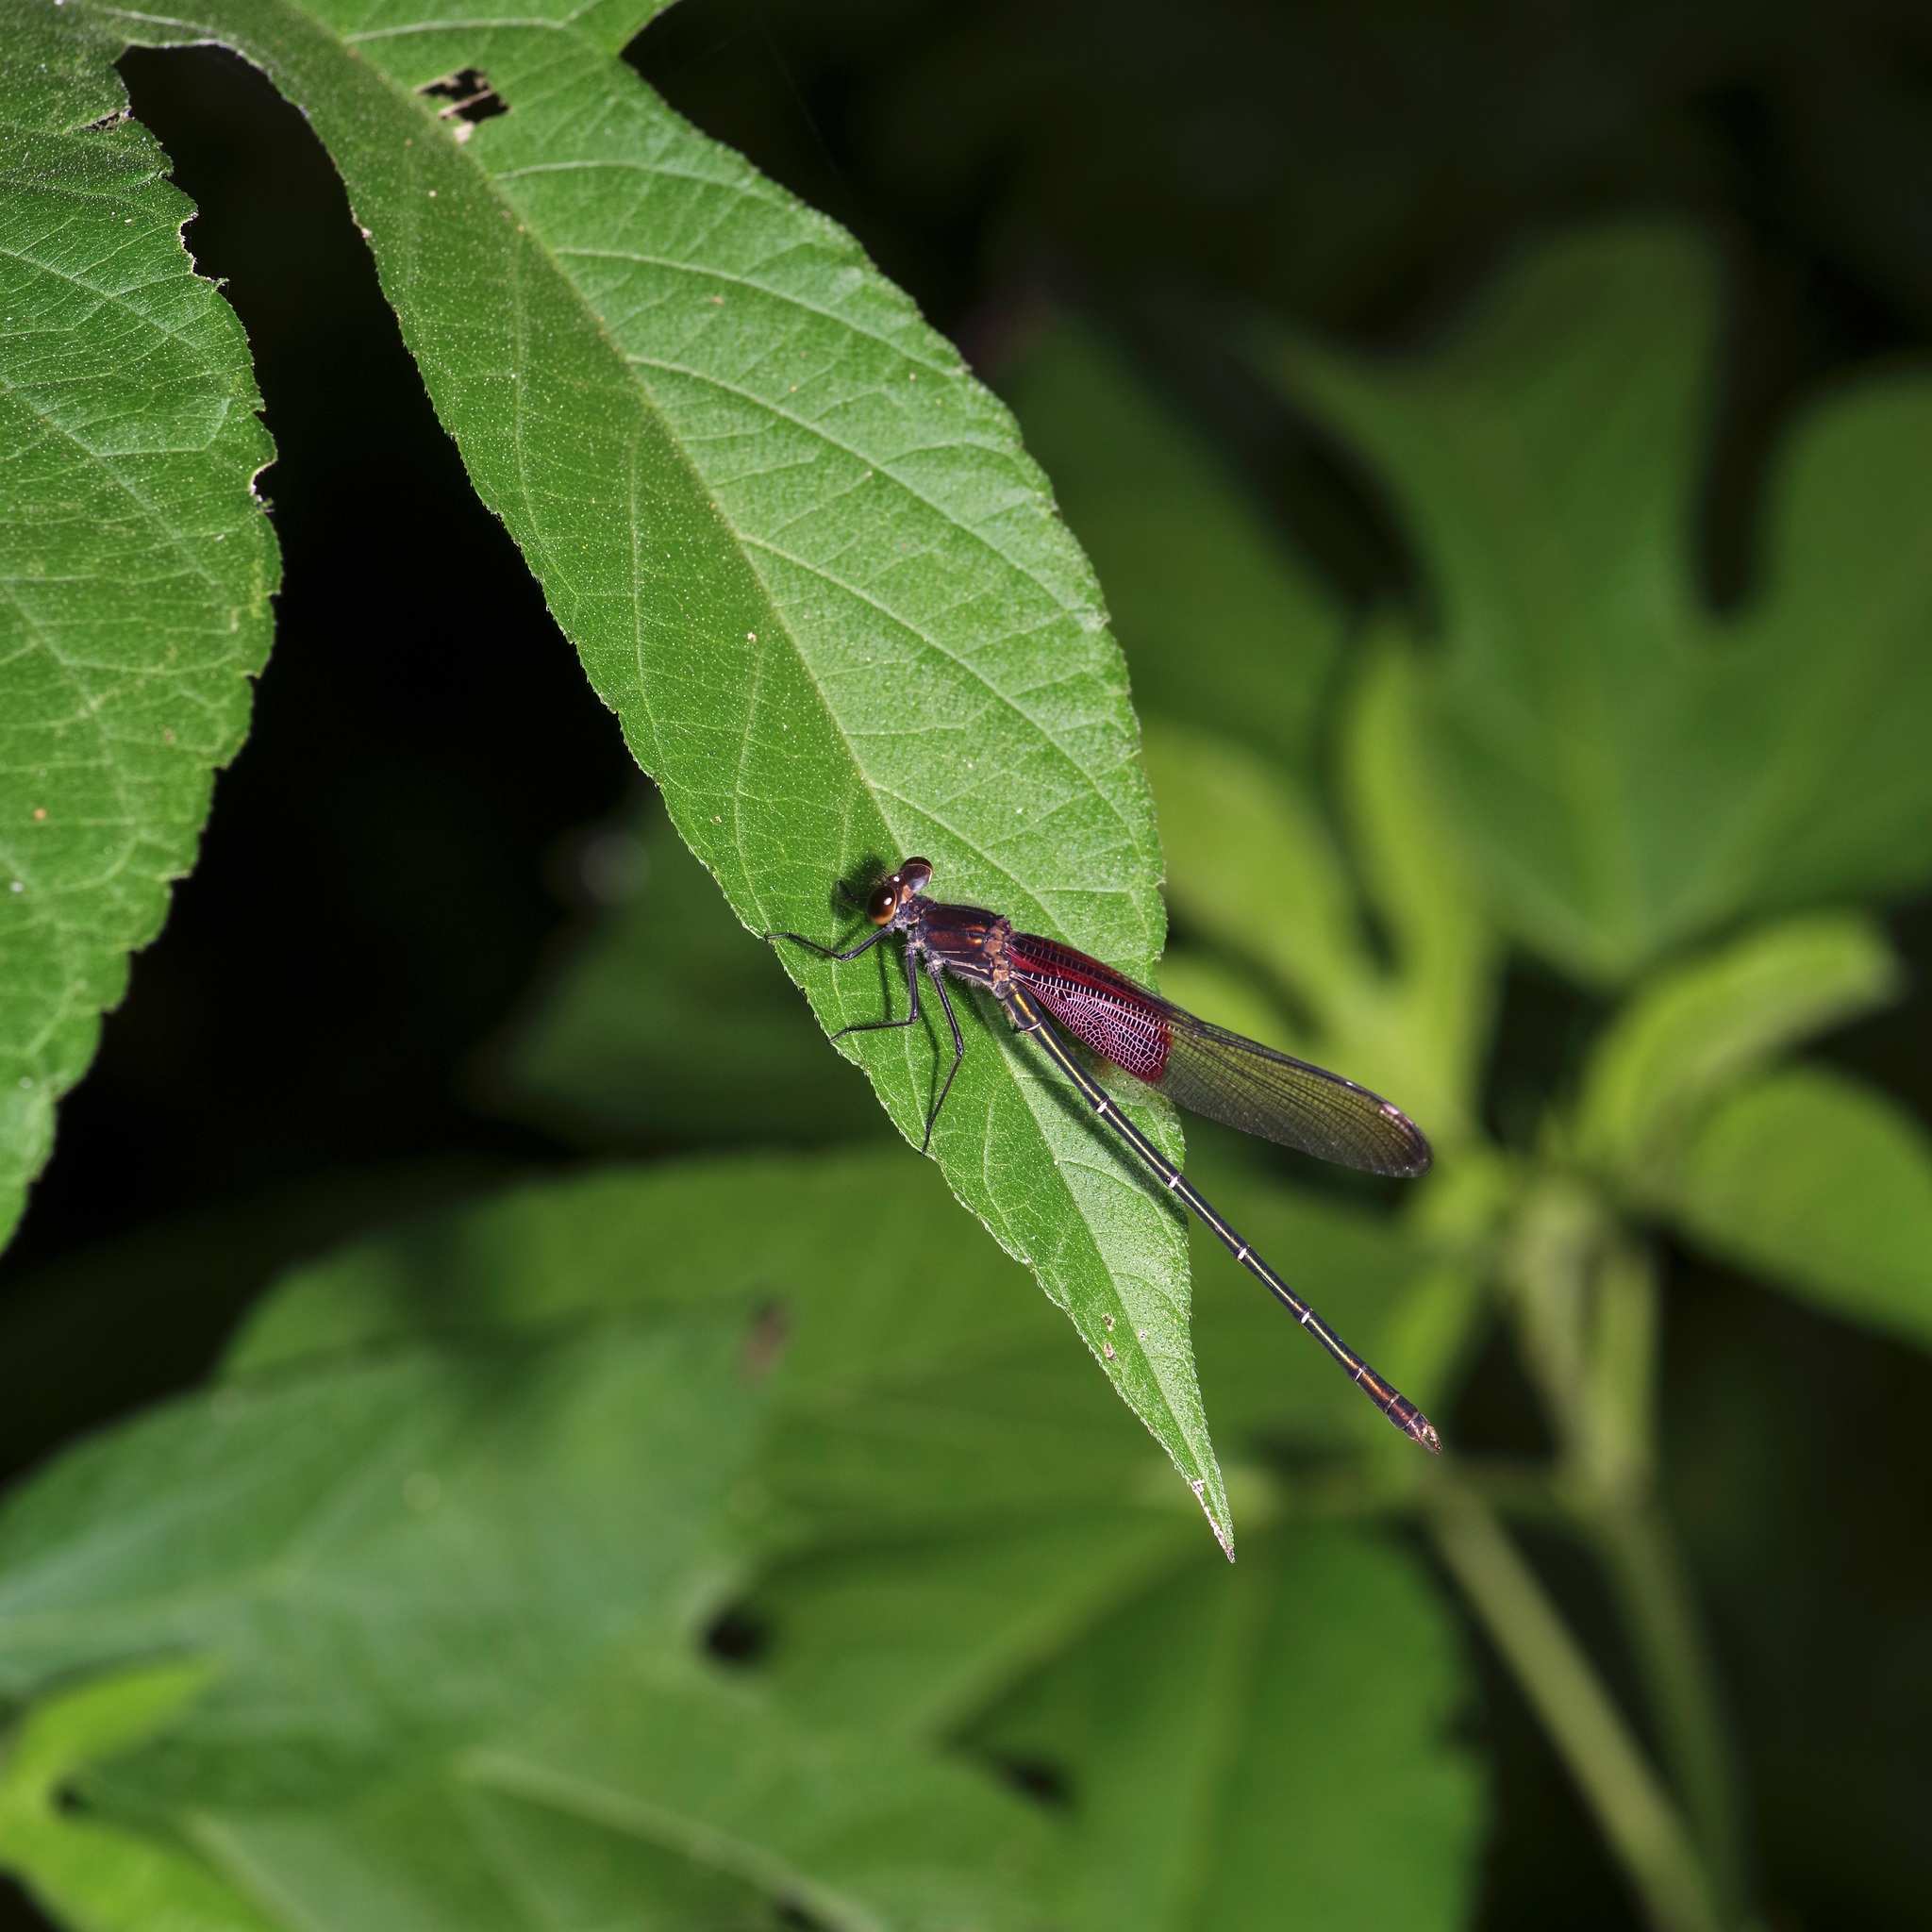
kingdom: Animalia
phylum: Arthropoda
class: Insecta
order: Odonata
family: Calopterygidae
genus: Hetaerina
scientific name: Hetaerina americana
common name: American rubyspot
